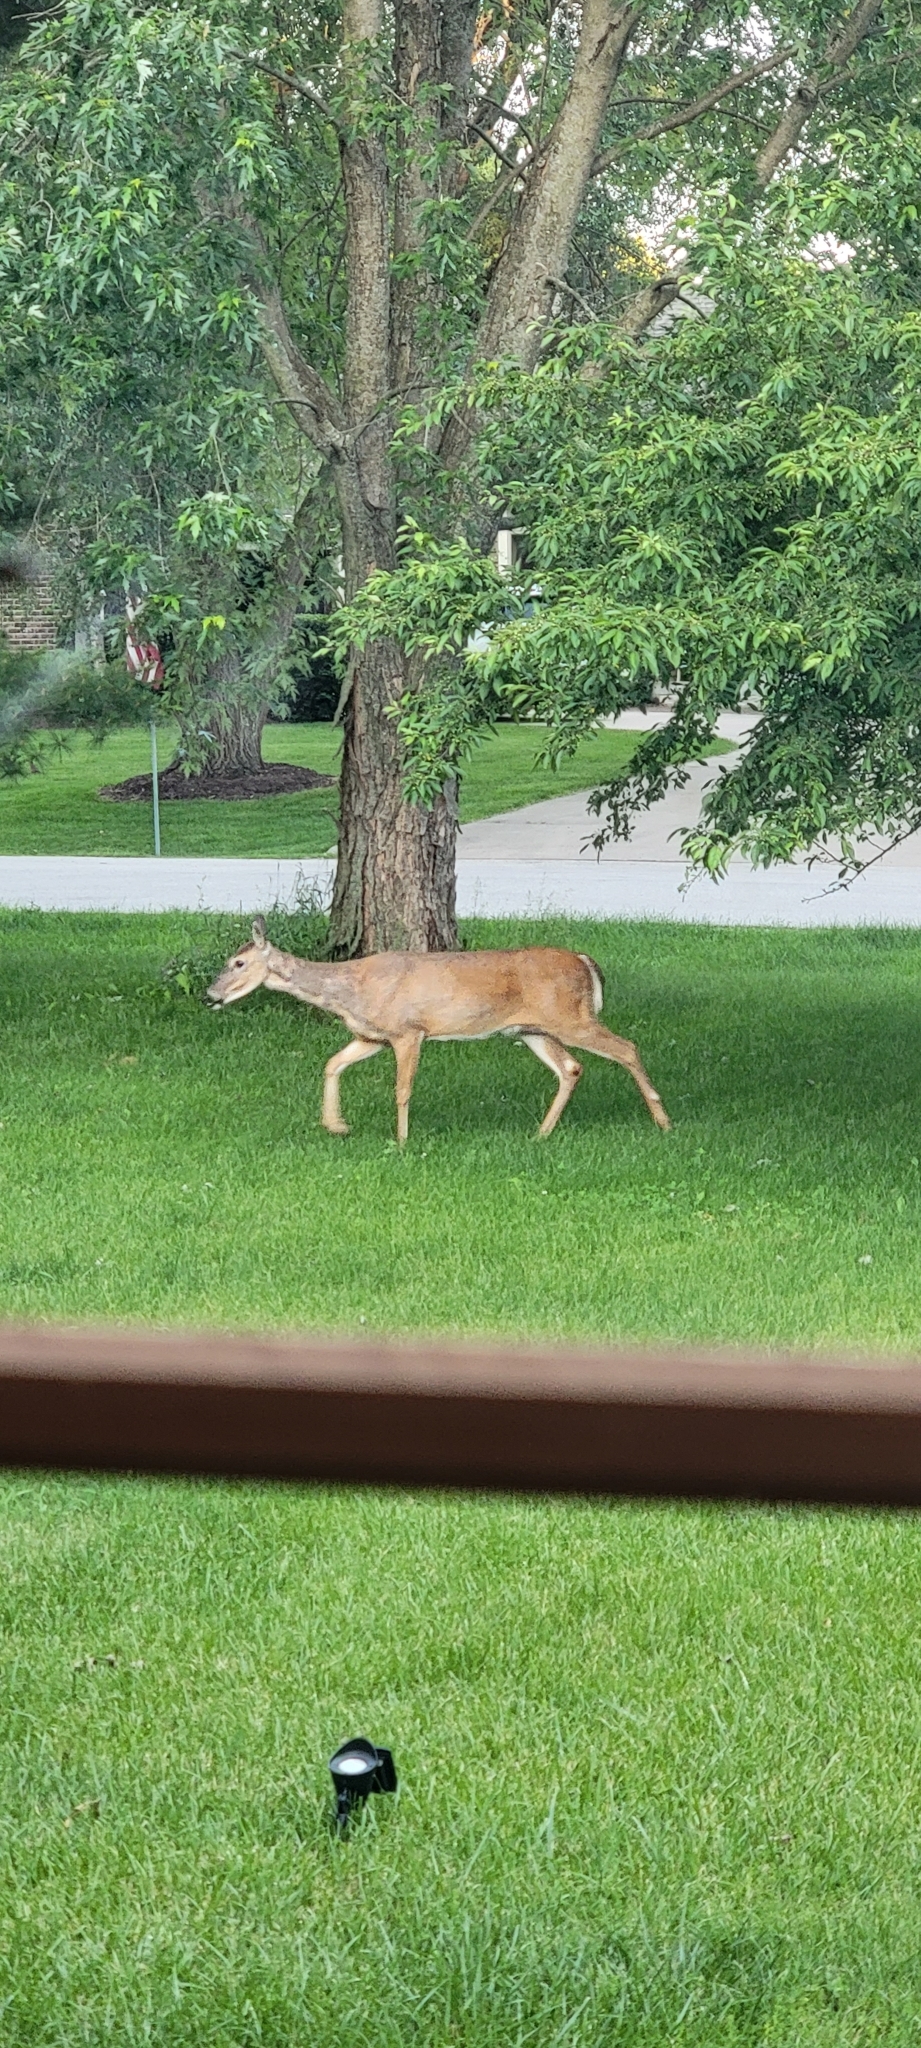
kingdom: Animalia
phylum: Chordata
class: Mammalia
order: Artiodactyla
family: Cervidae
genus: Odocoileus
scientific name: Odocoileus virginianus
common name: White-tailed deer
